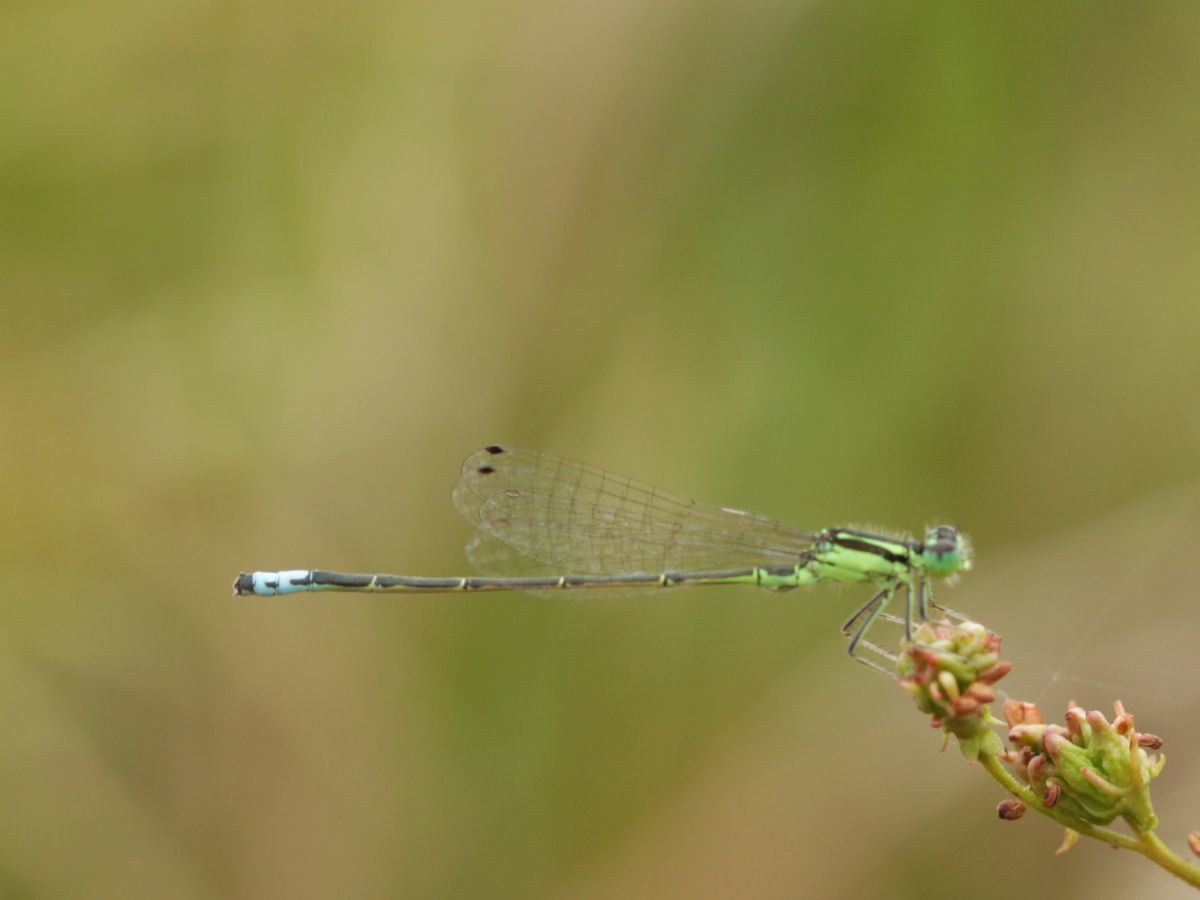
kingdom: Animalia
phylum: Arthropoda
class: Insecta
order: Odonata
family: Coenagrionidae
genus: Ischnura
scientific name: Ischnura verticalis
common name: Eastern forktail
